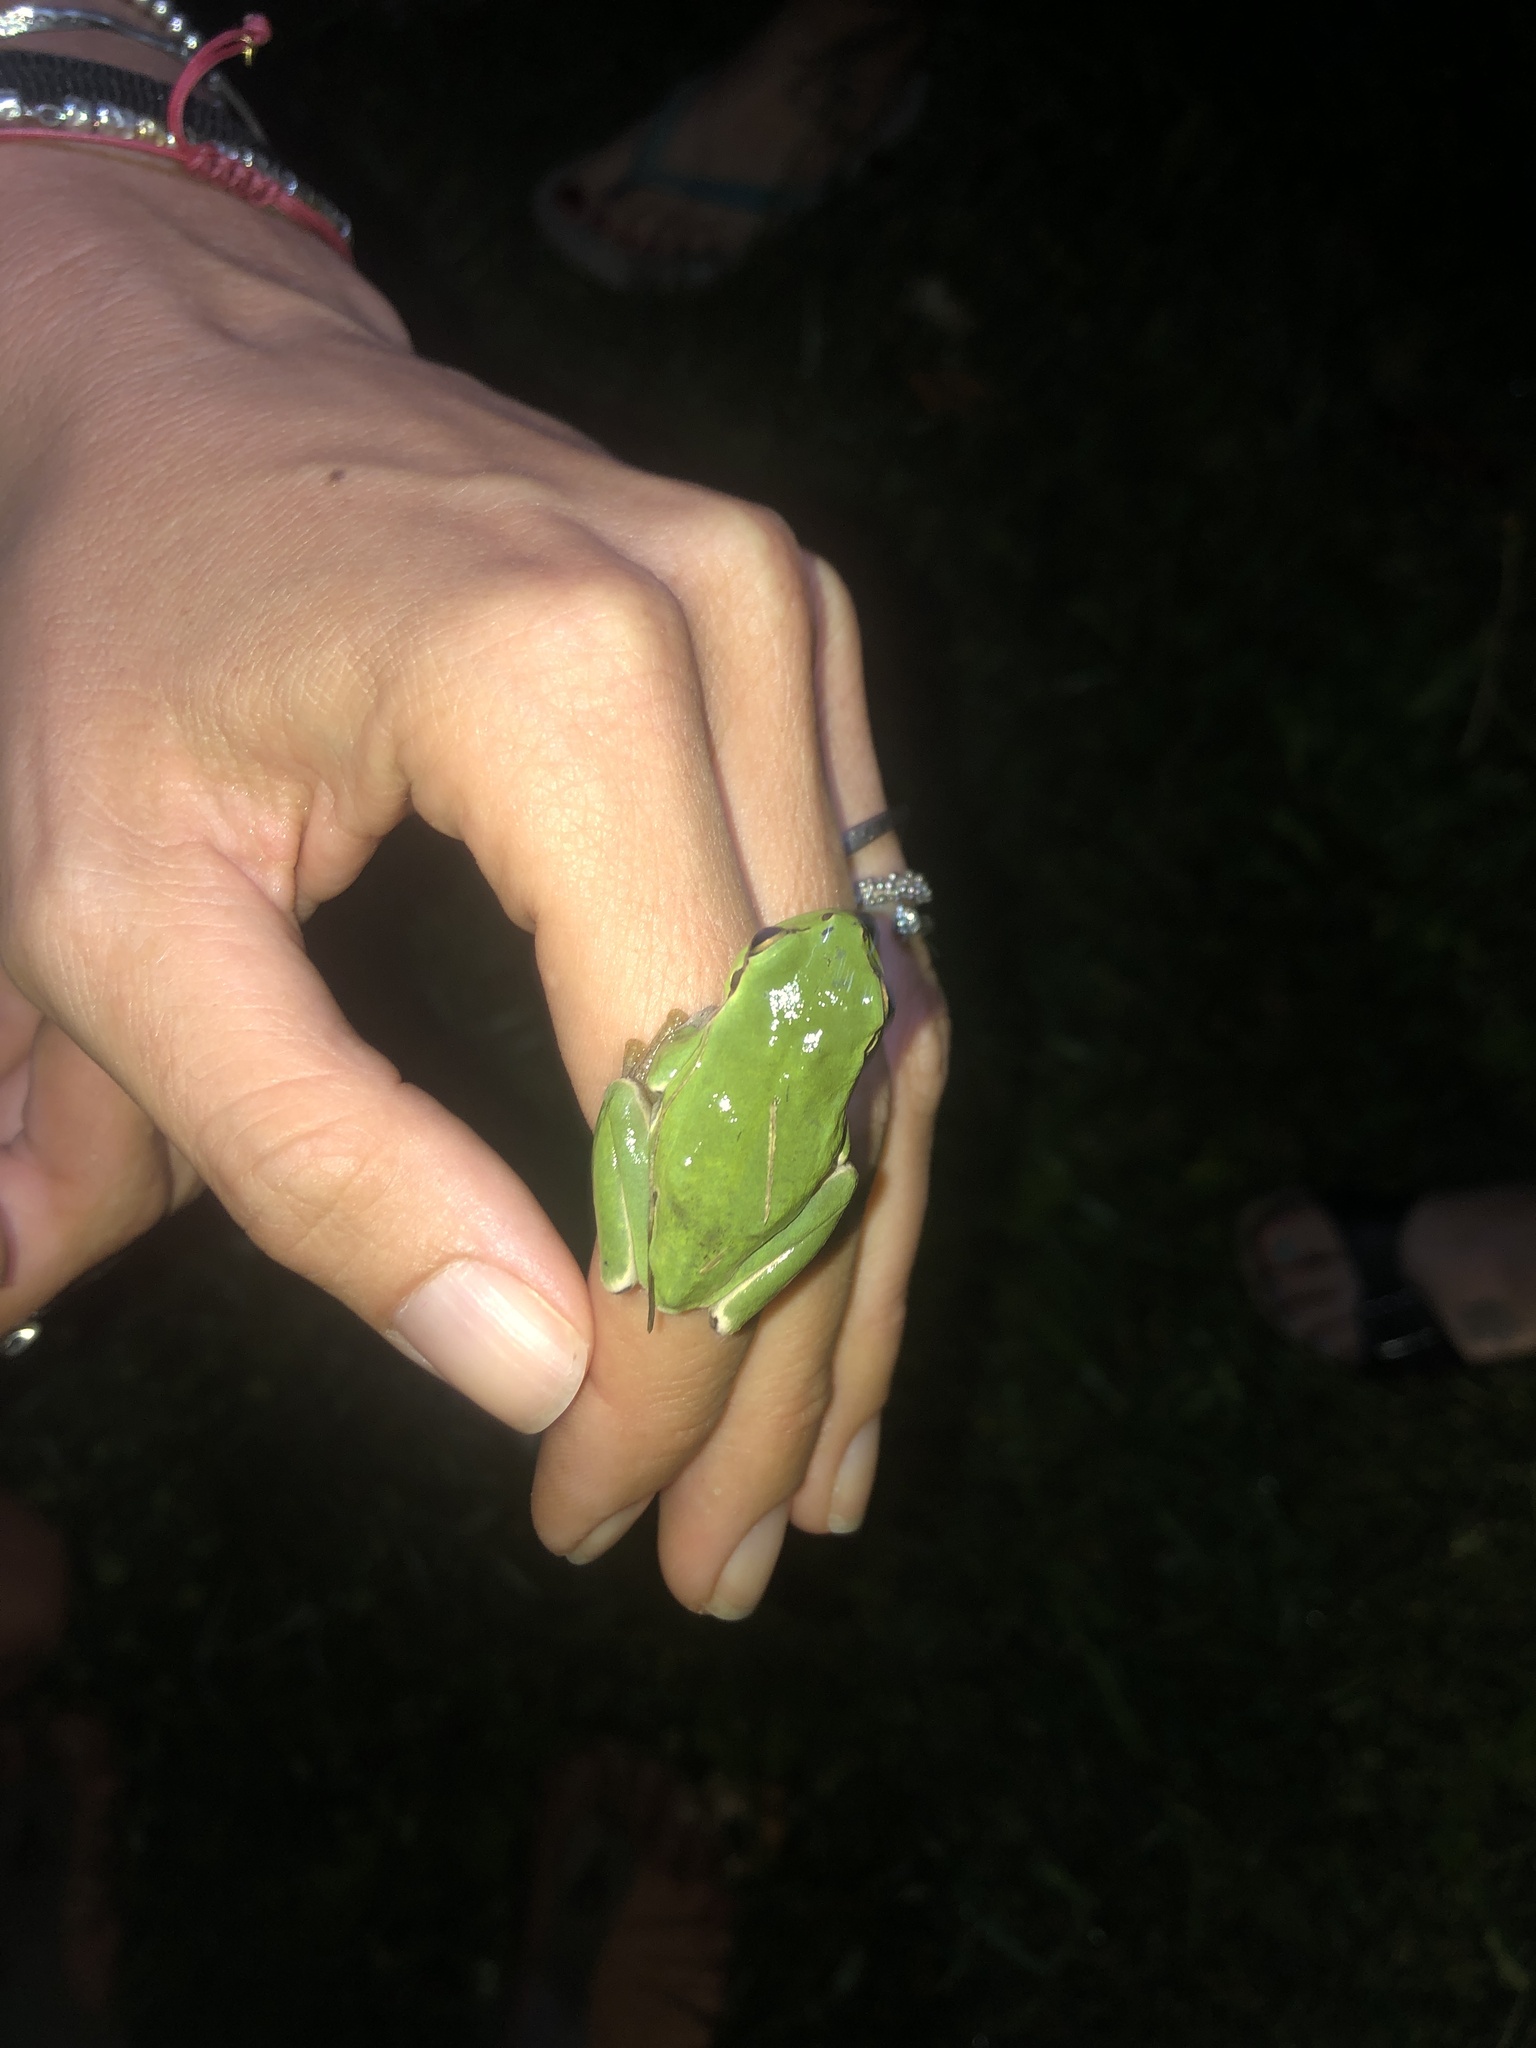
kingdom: Animalia
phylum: Chordata
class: Amphibia
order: Anura
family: Hylidae
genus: Hyla
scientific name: Hyla intermedia
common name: Italian tree frog
